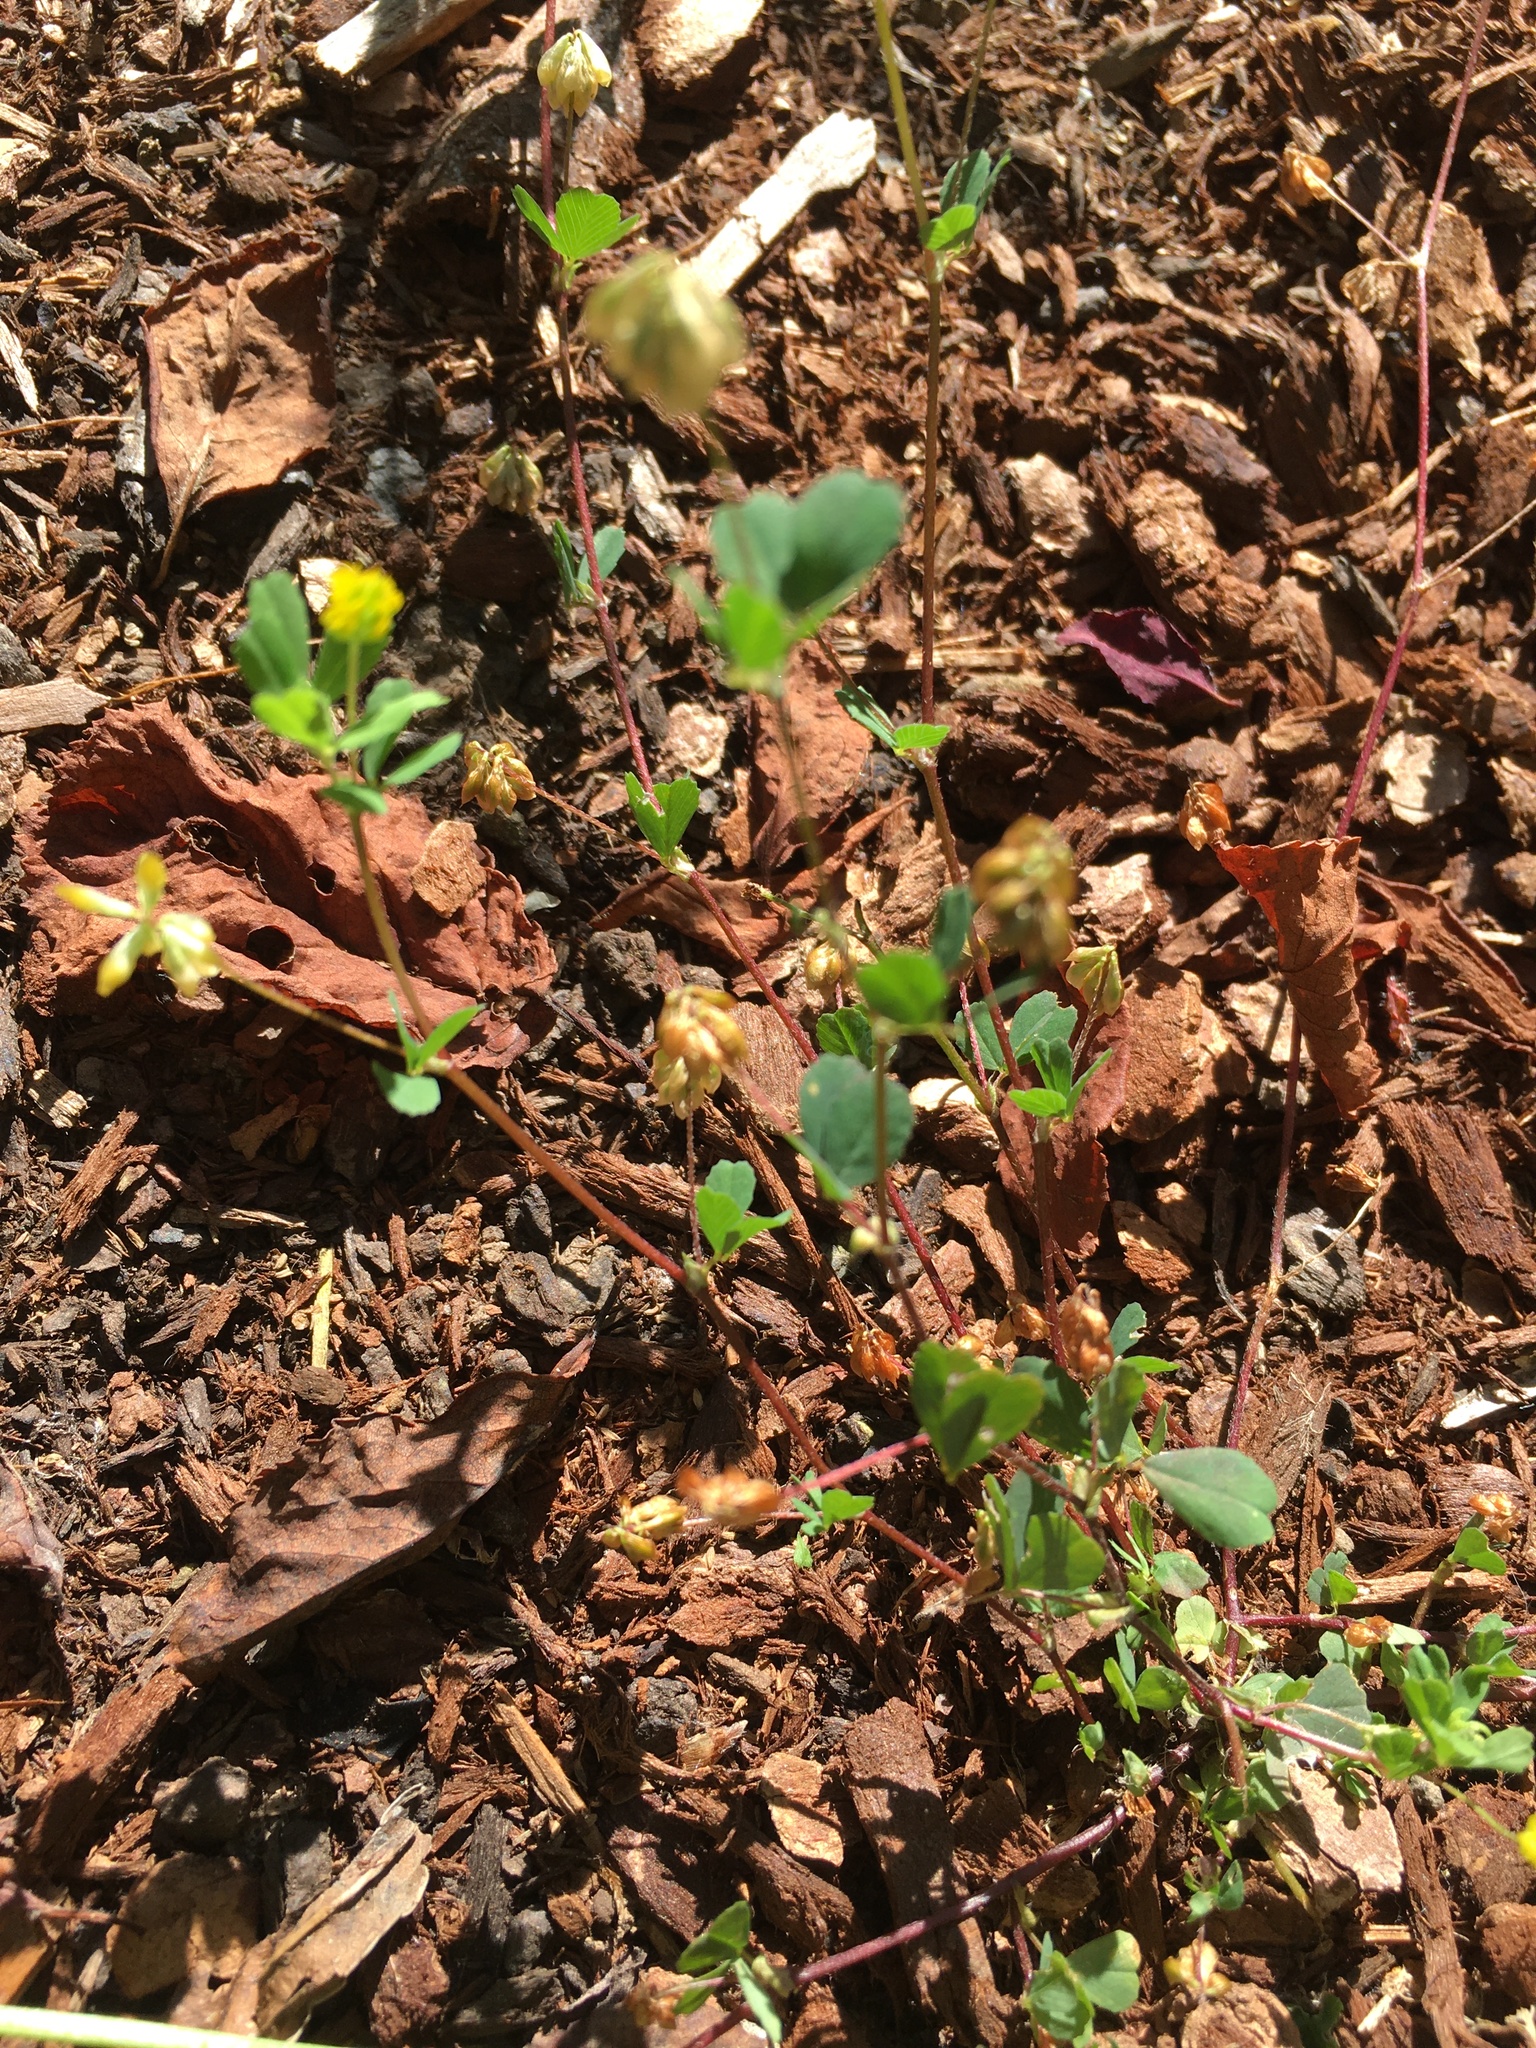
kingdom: Plantae
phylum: Tracheophyta
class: Magnoliopsida
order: Fabales
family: Fabaceae
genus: Trifolium
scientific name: Trifolium dubium
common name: Suckling clover
